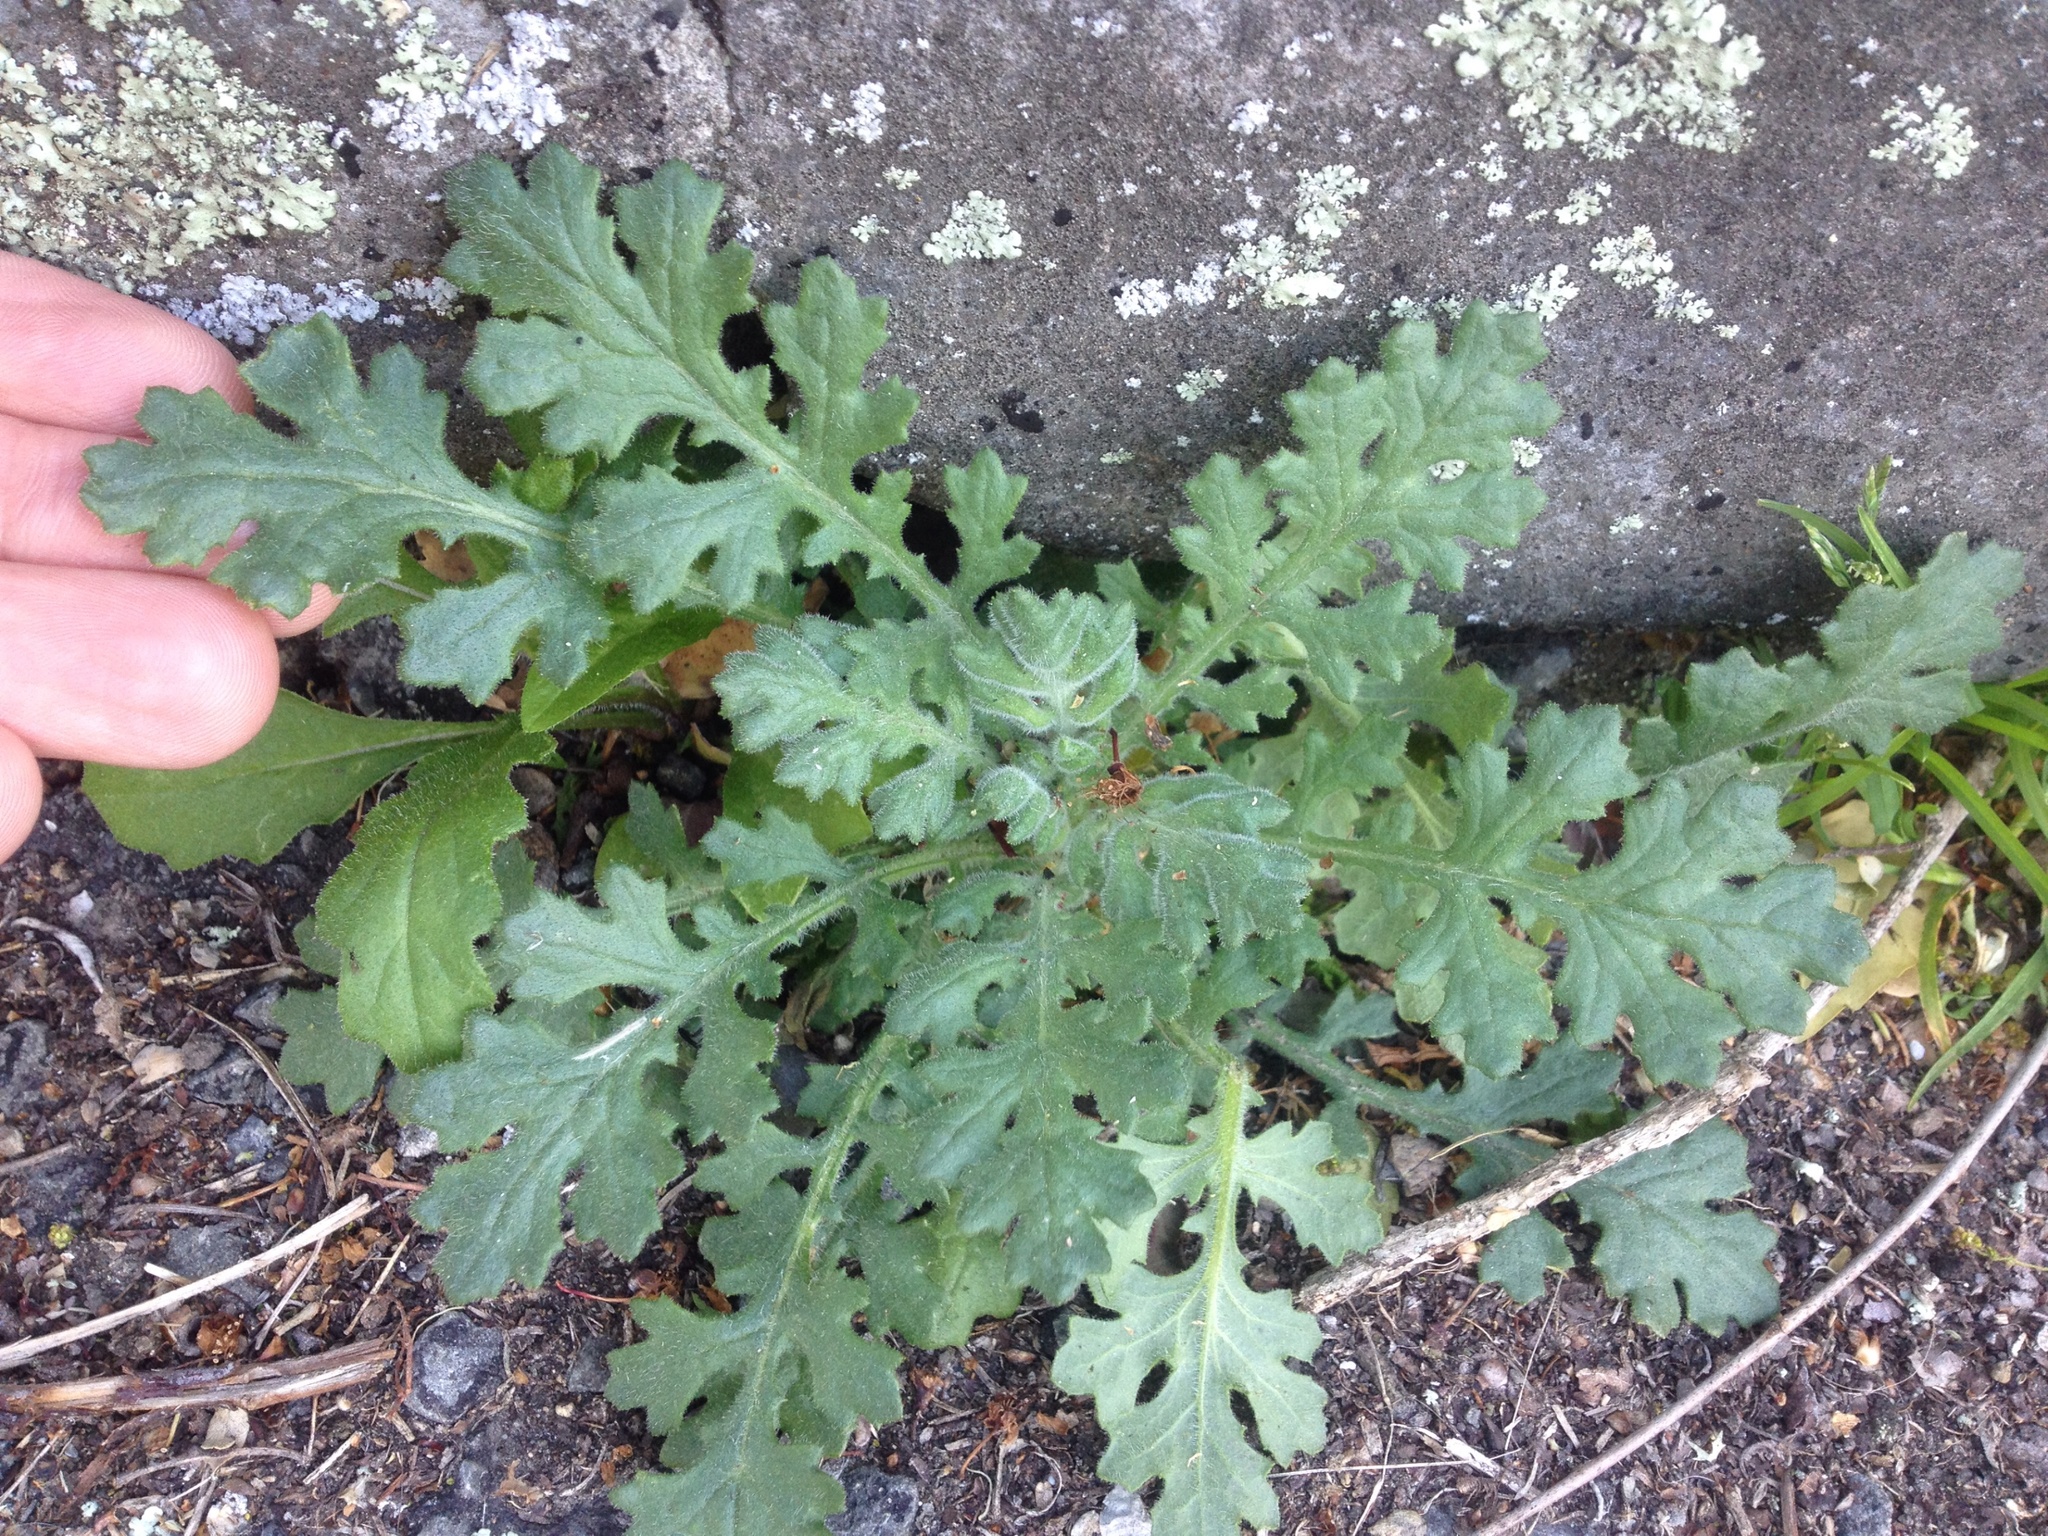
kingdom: Plantae
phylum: Tracheophyta
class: Magnoliopsida
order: Asterales
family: Asteraceae
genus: Senecio
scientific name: Senecio sylvaticus
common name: Woodland ragwort
